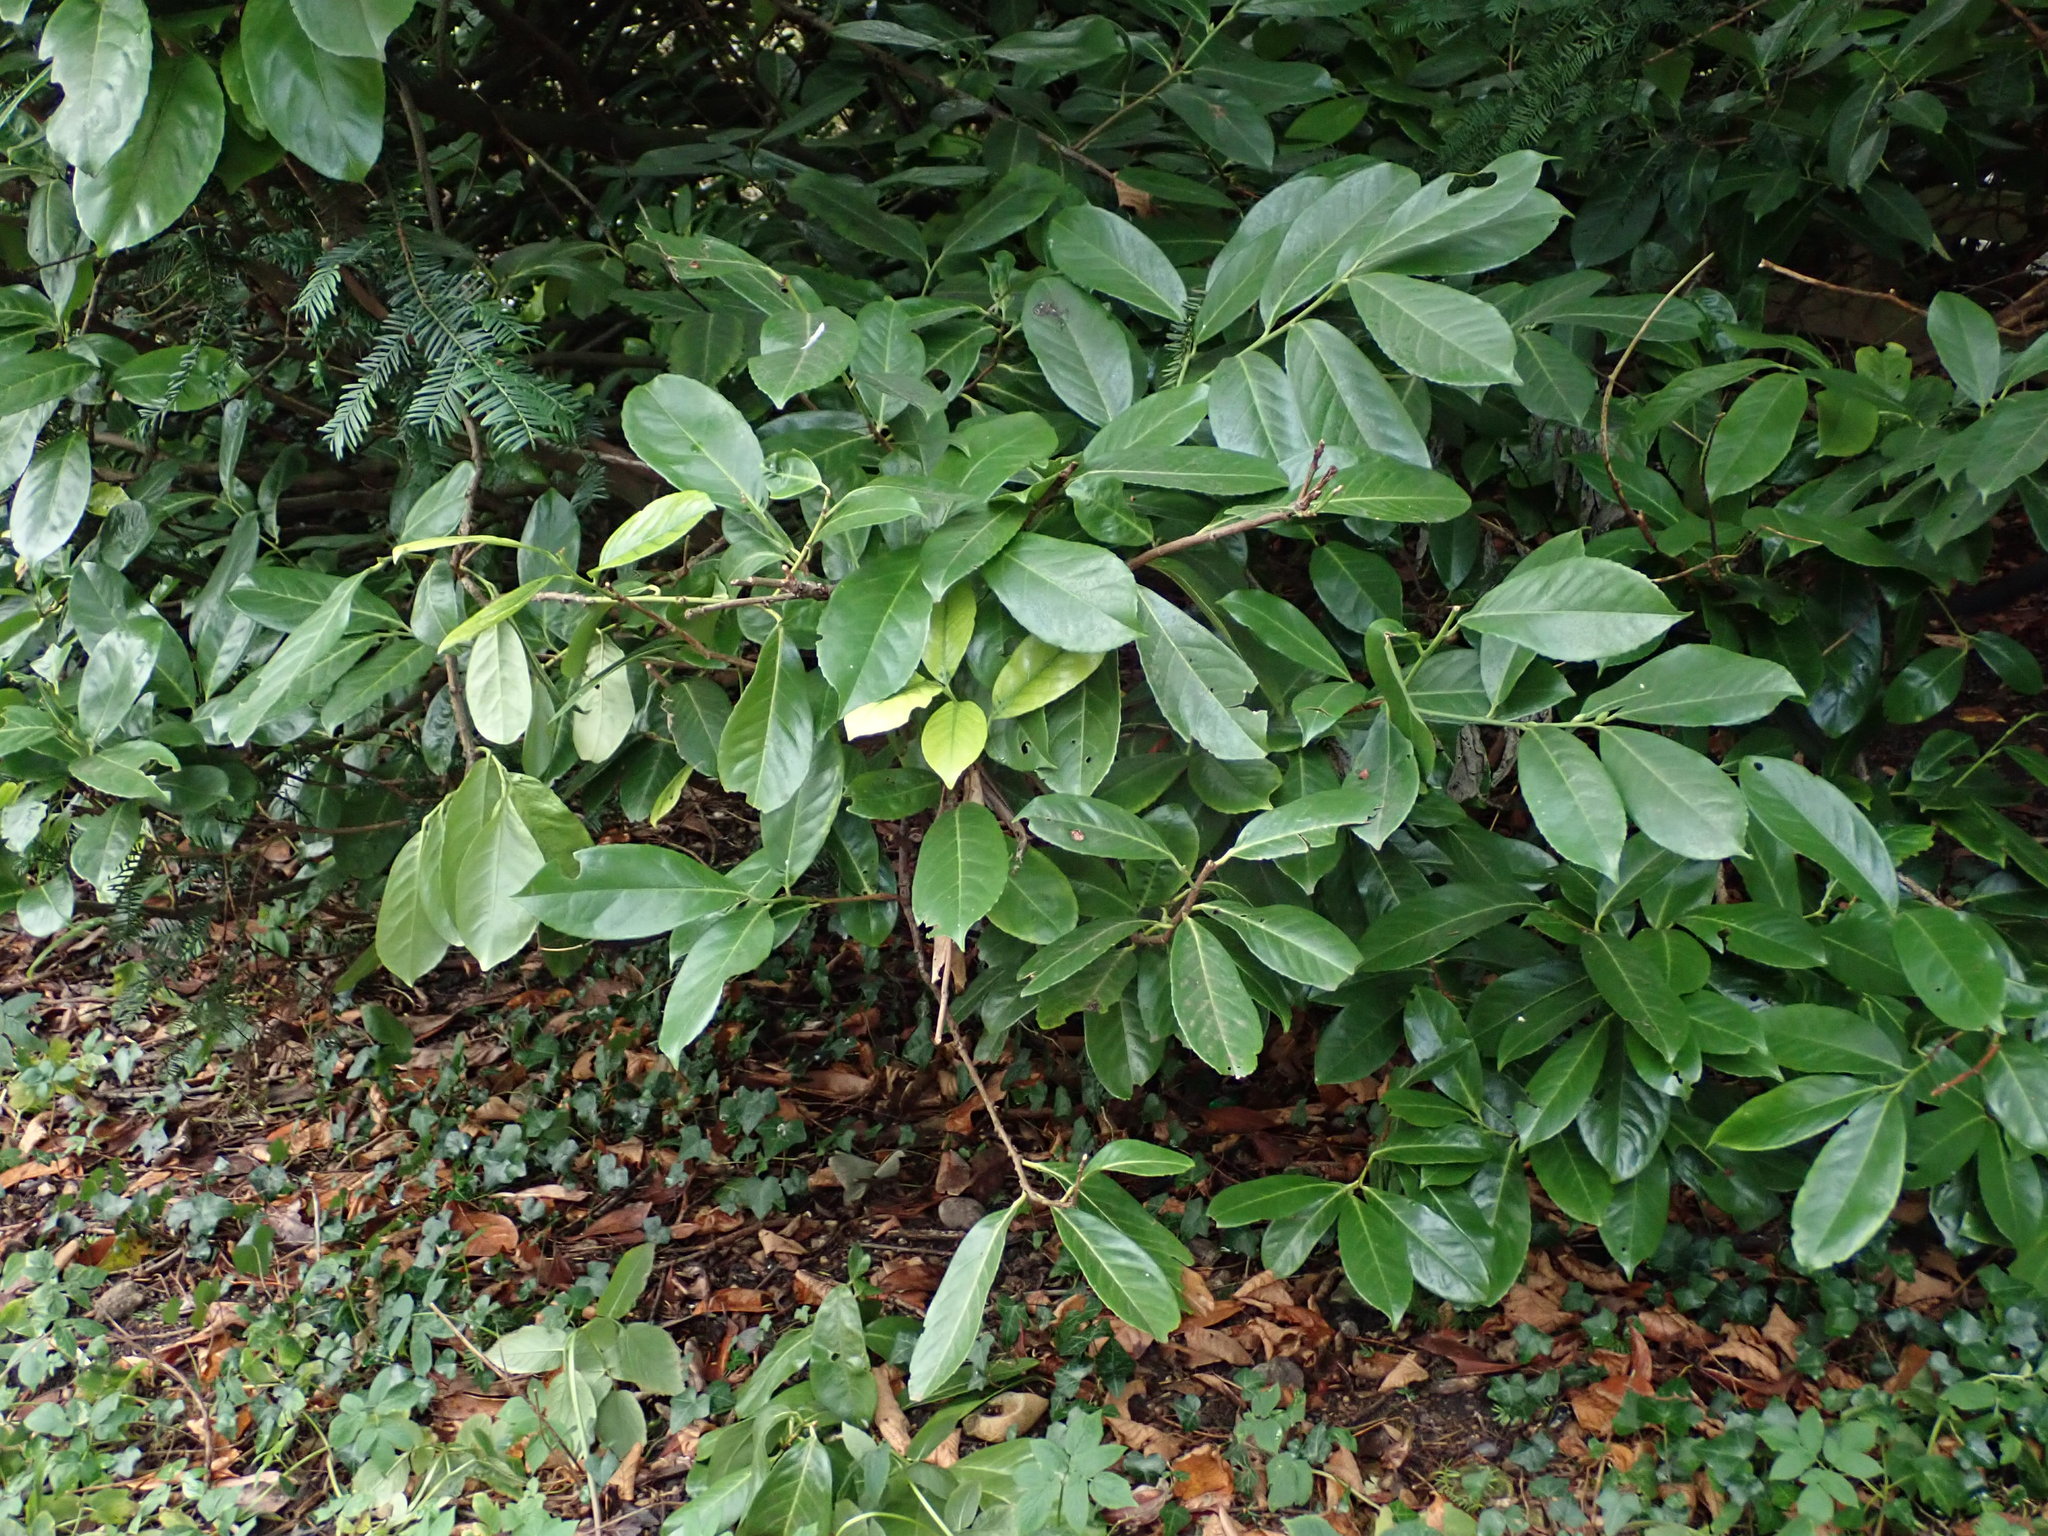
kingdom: Plantae
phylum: Tracheophyta
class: Magnoliopsida
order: Rosales
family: Rosaceae
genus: Prunus
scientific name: Prunus laurocerasus
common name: Cherry laurel
